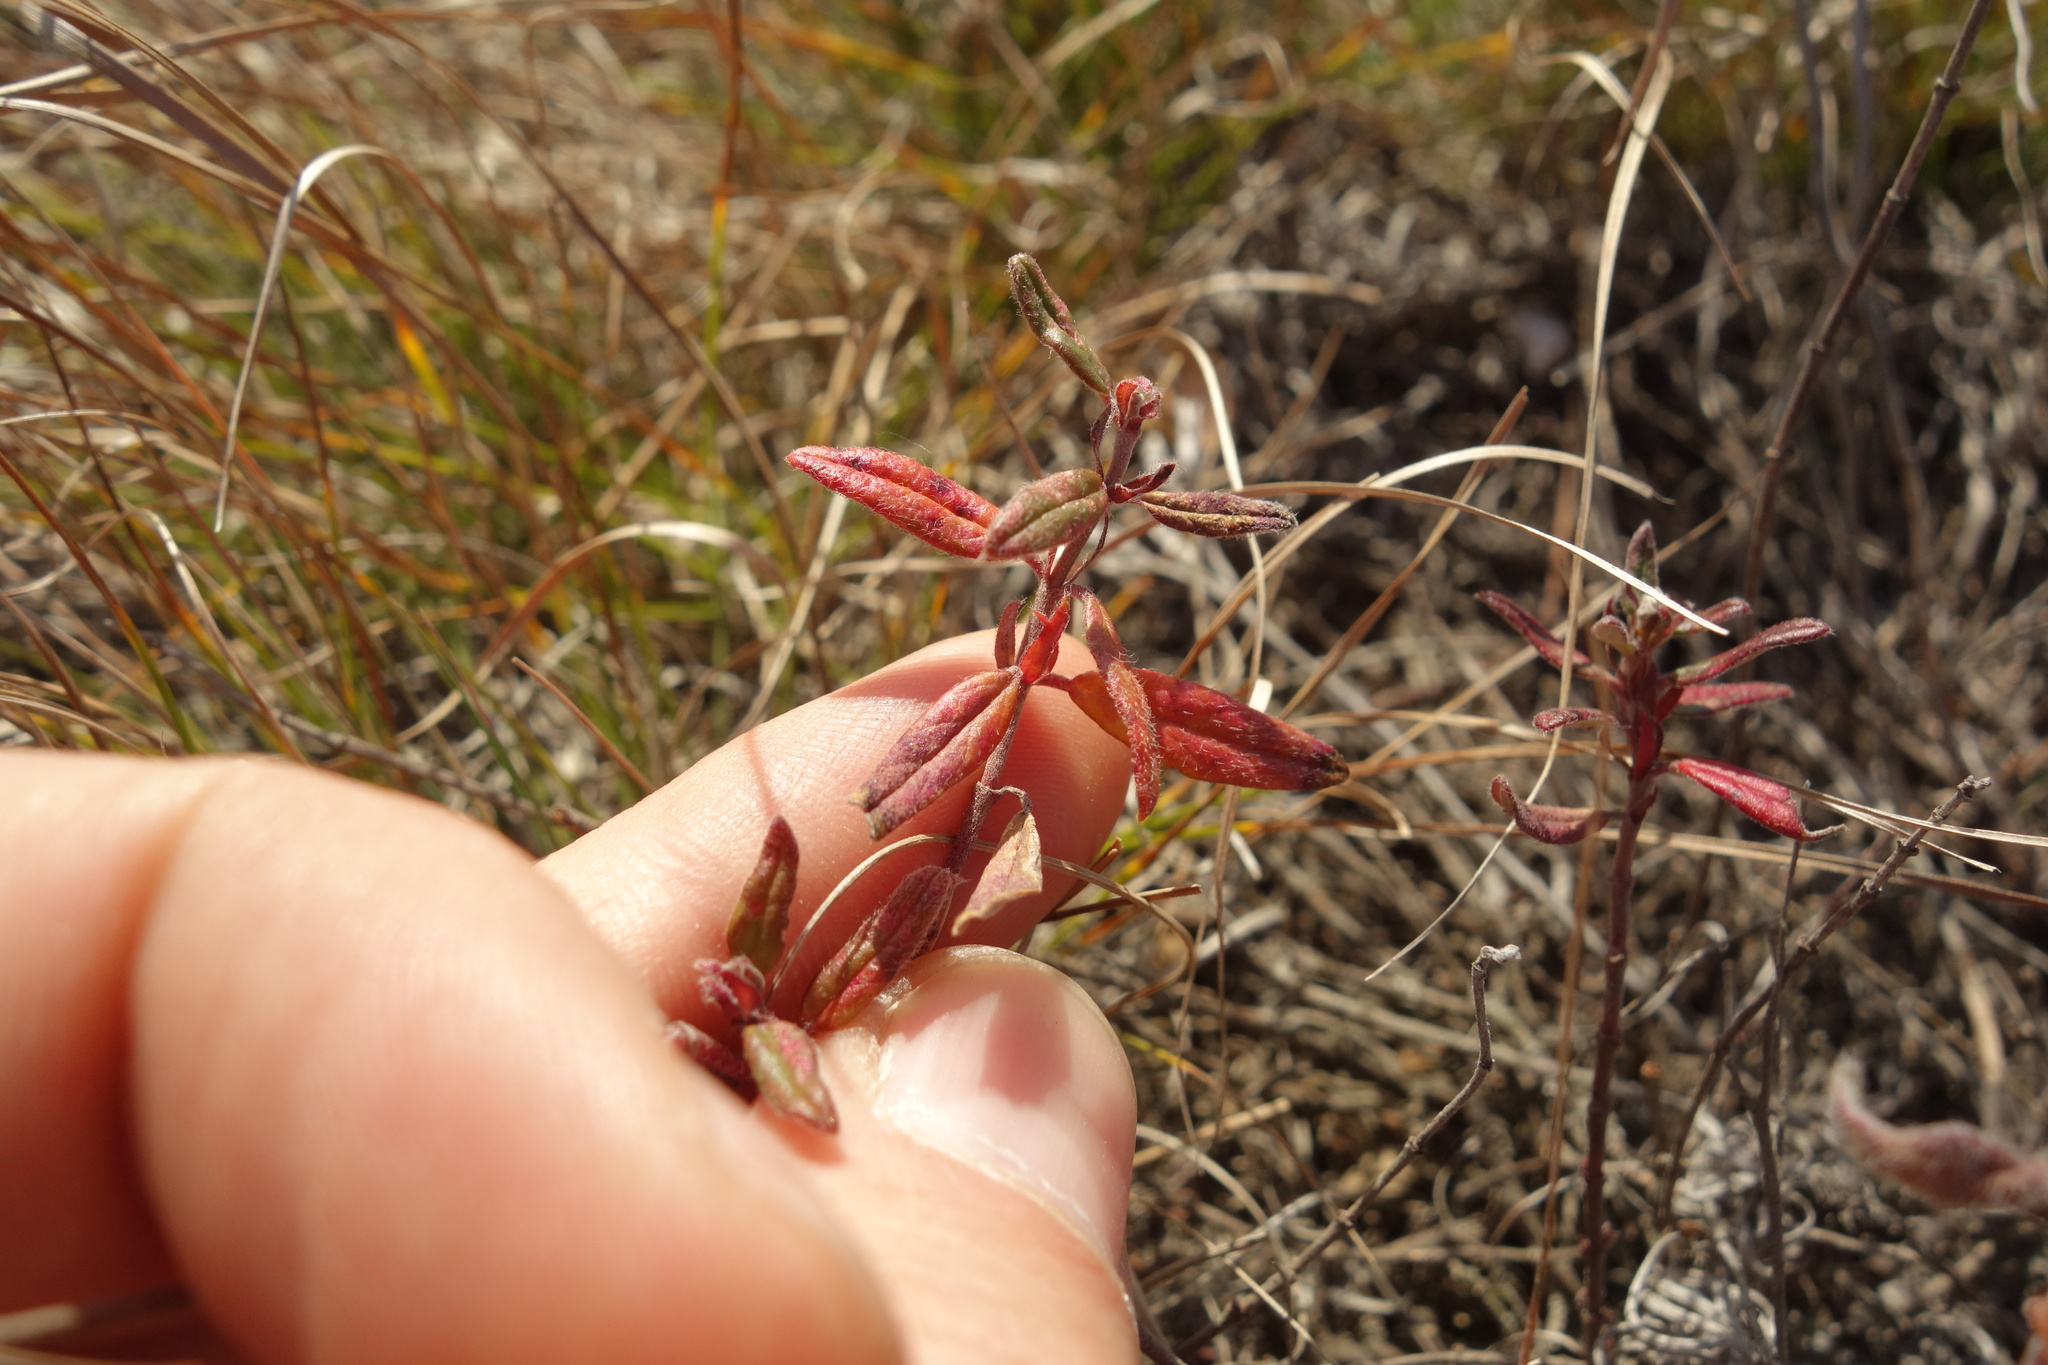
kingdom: Plantae
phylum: Tracheophyta
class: Magnoliopsida
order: Malvales
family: Cistaceae
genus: Helianthemum
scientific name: Helianthemum nummularium
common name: Common rock-rose
